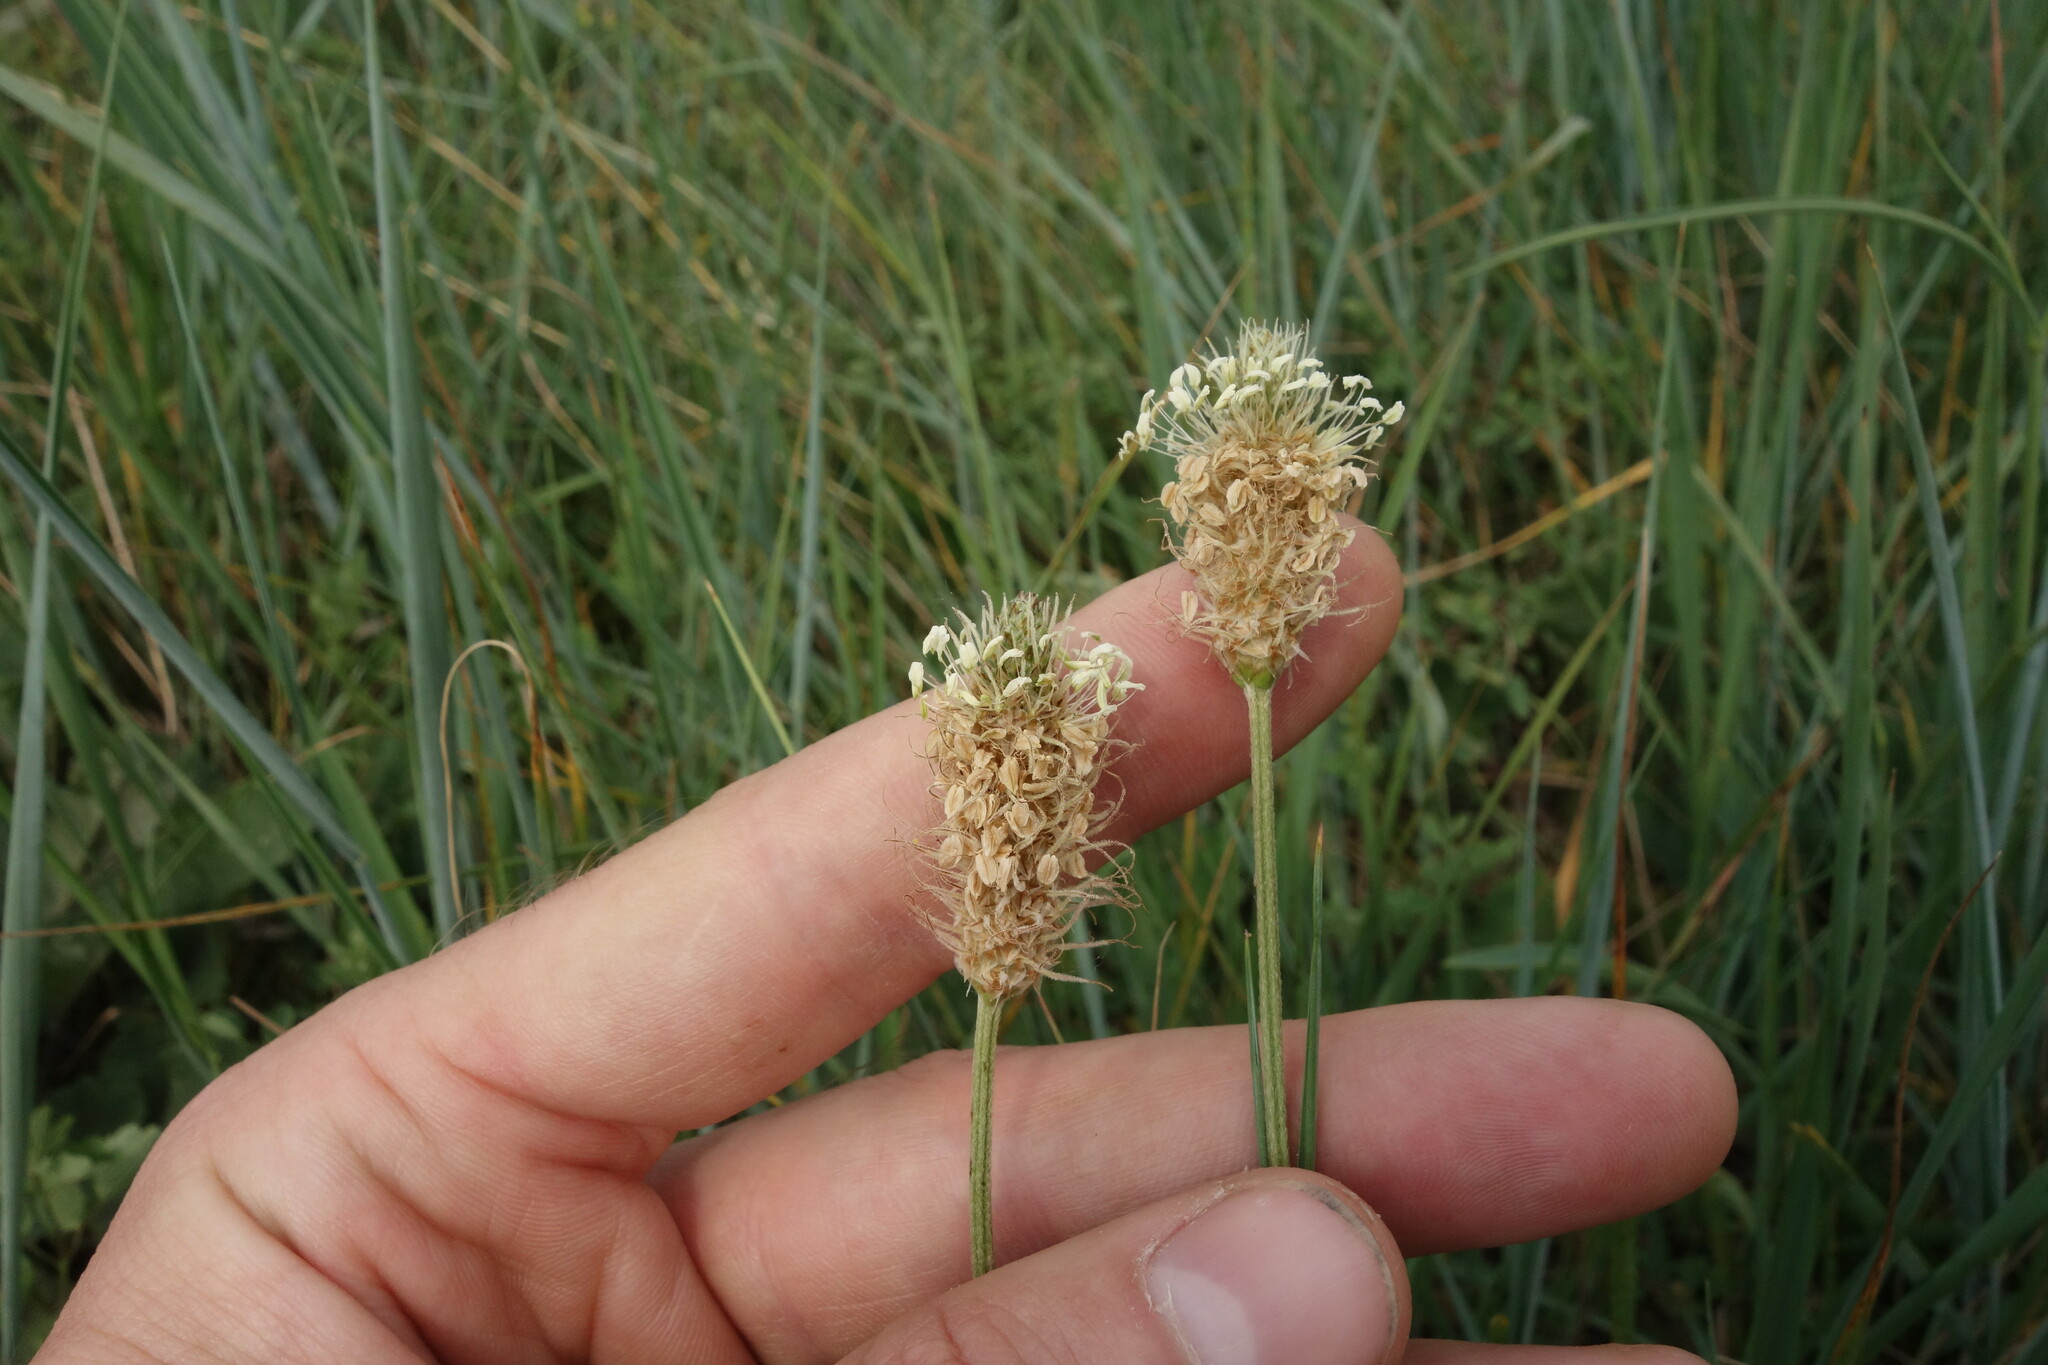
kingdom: Plantae
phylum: Tracheophyta
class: Magnoliopsida
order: Lamiales
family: Plantaginaceae
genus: Plantago
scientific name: Plantago lanceolata
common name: Ribwort plantain
